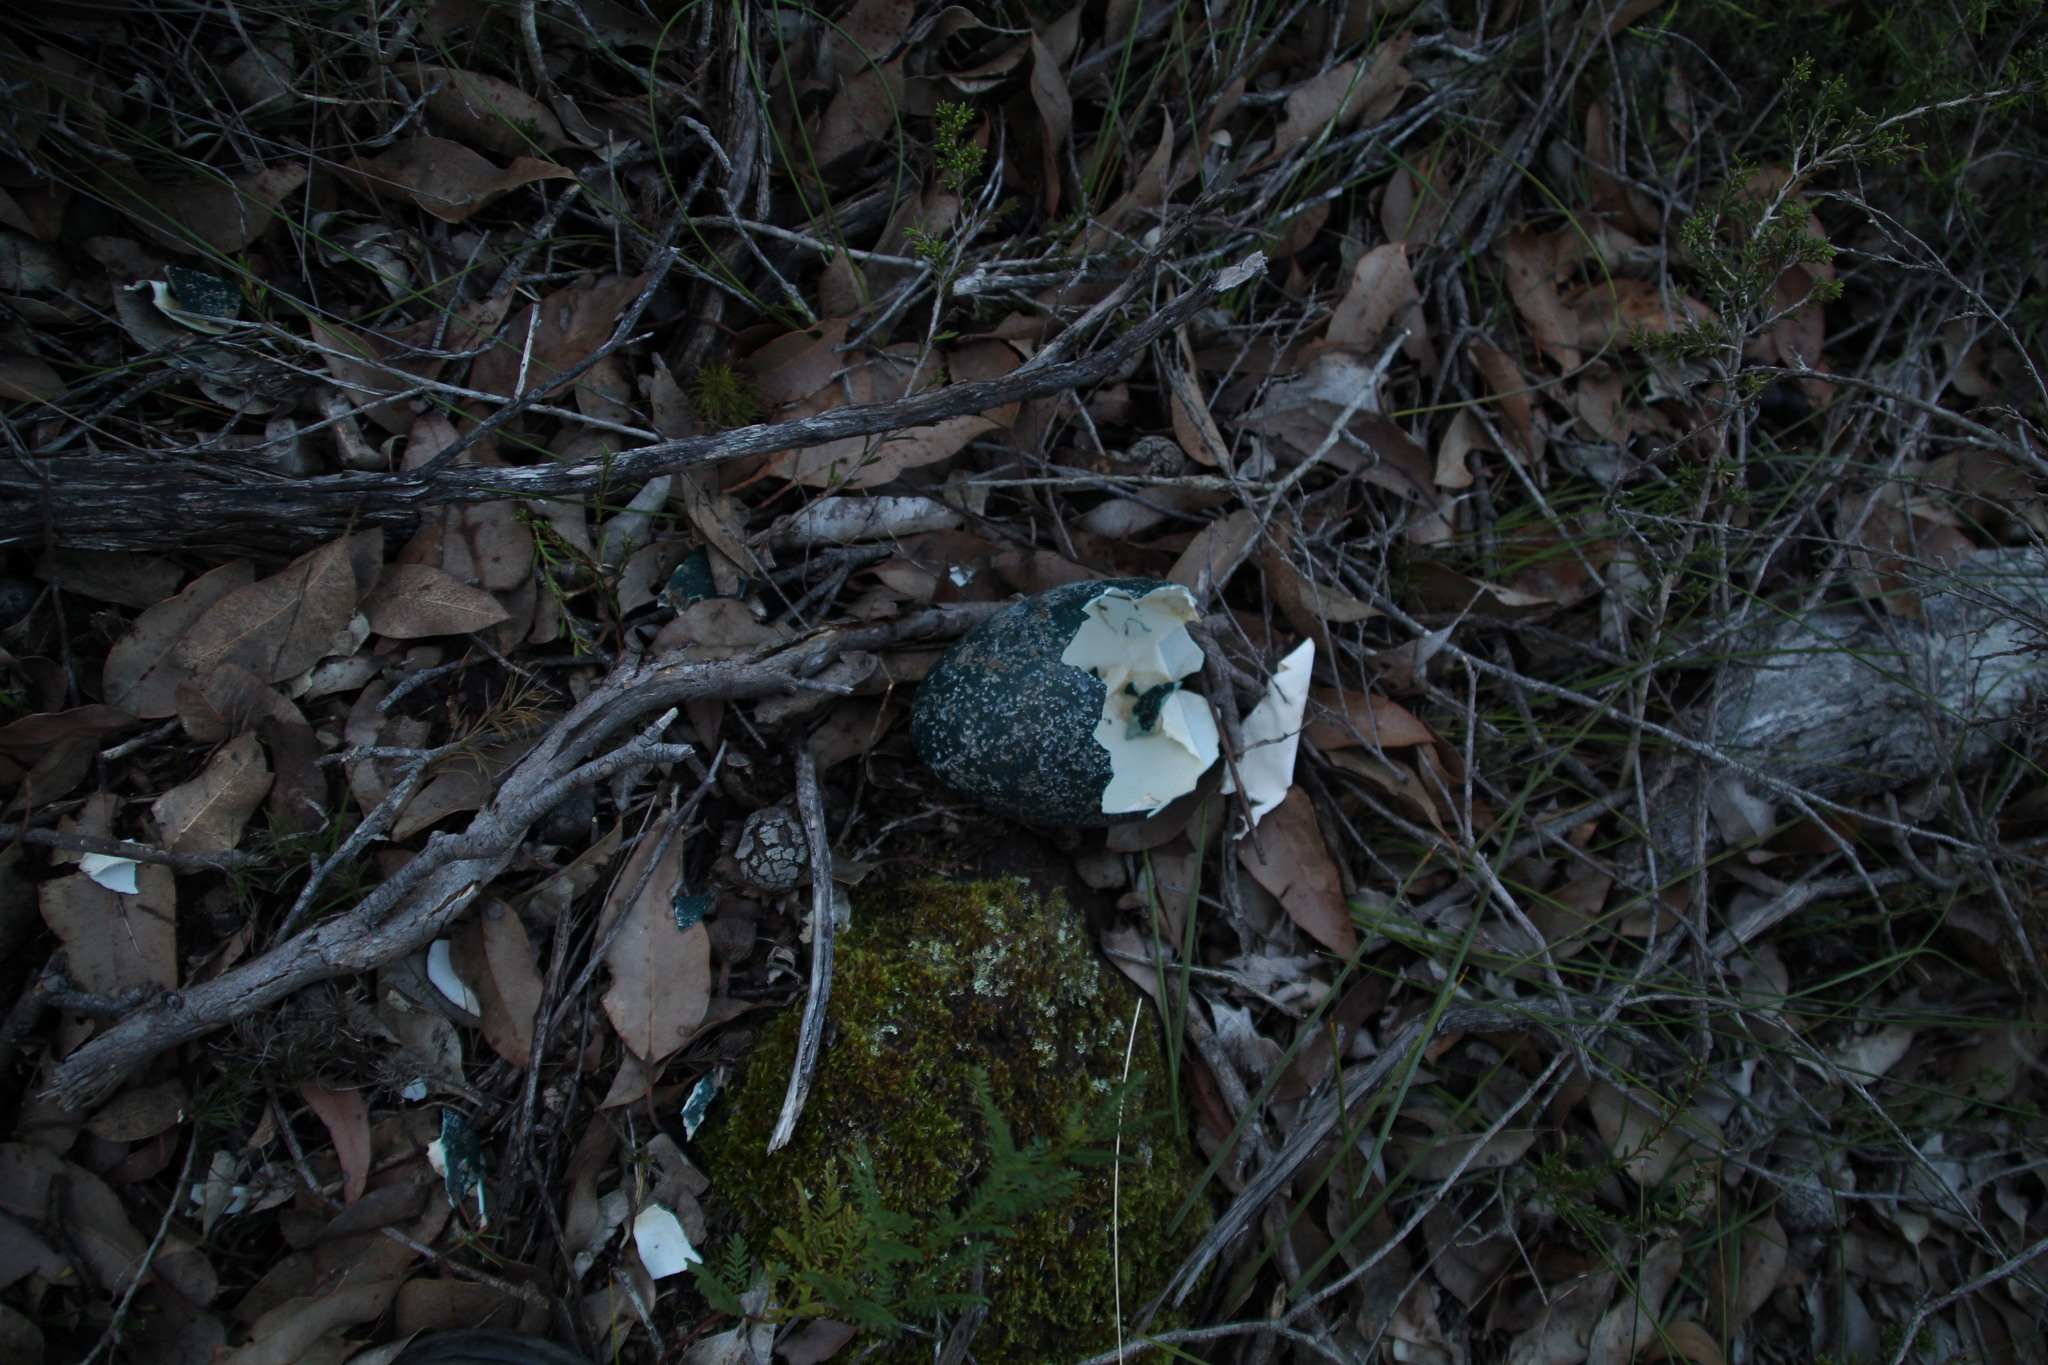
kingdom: Animalia
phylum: Chordata
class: Aves
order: Casuariiformes
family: Dromaiidae
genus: Dromaius
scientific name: Dromaius novaehollandiae
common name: Emu
